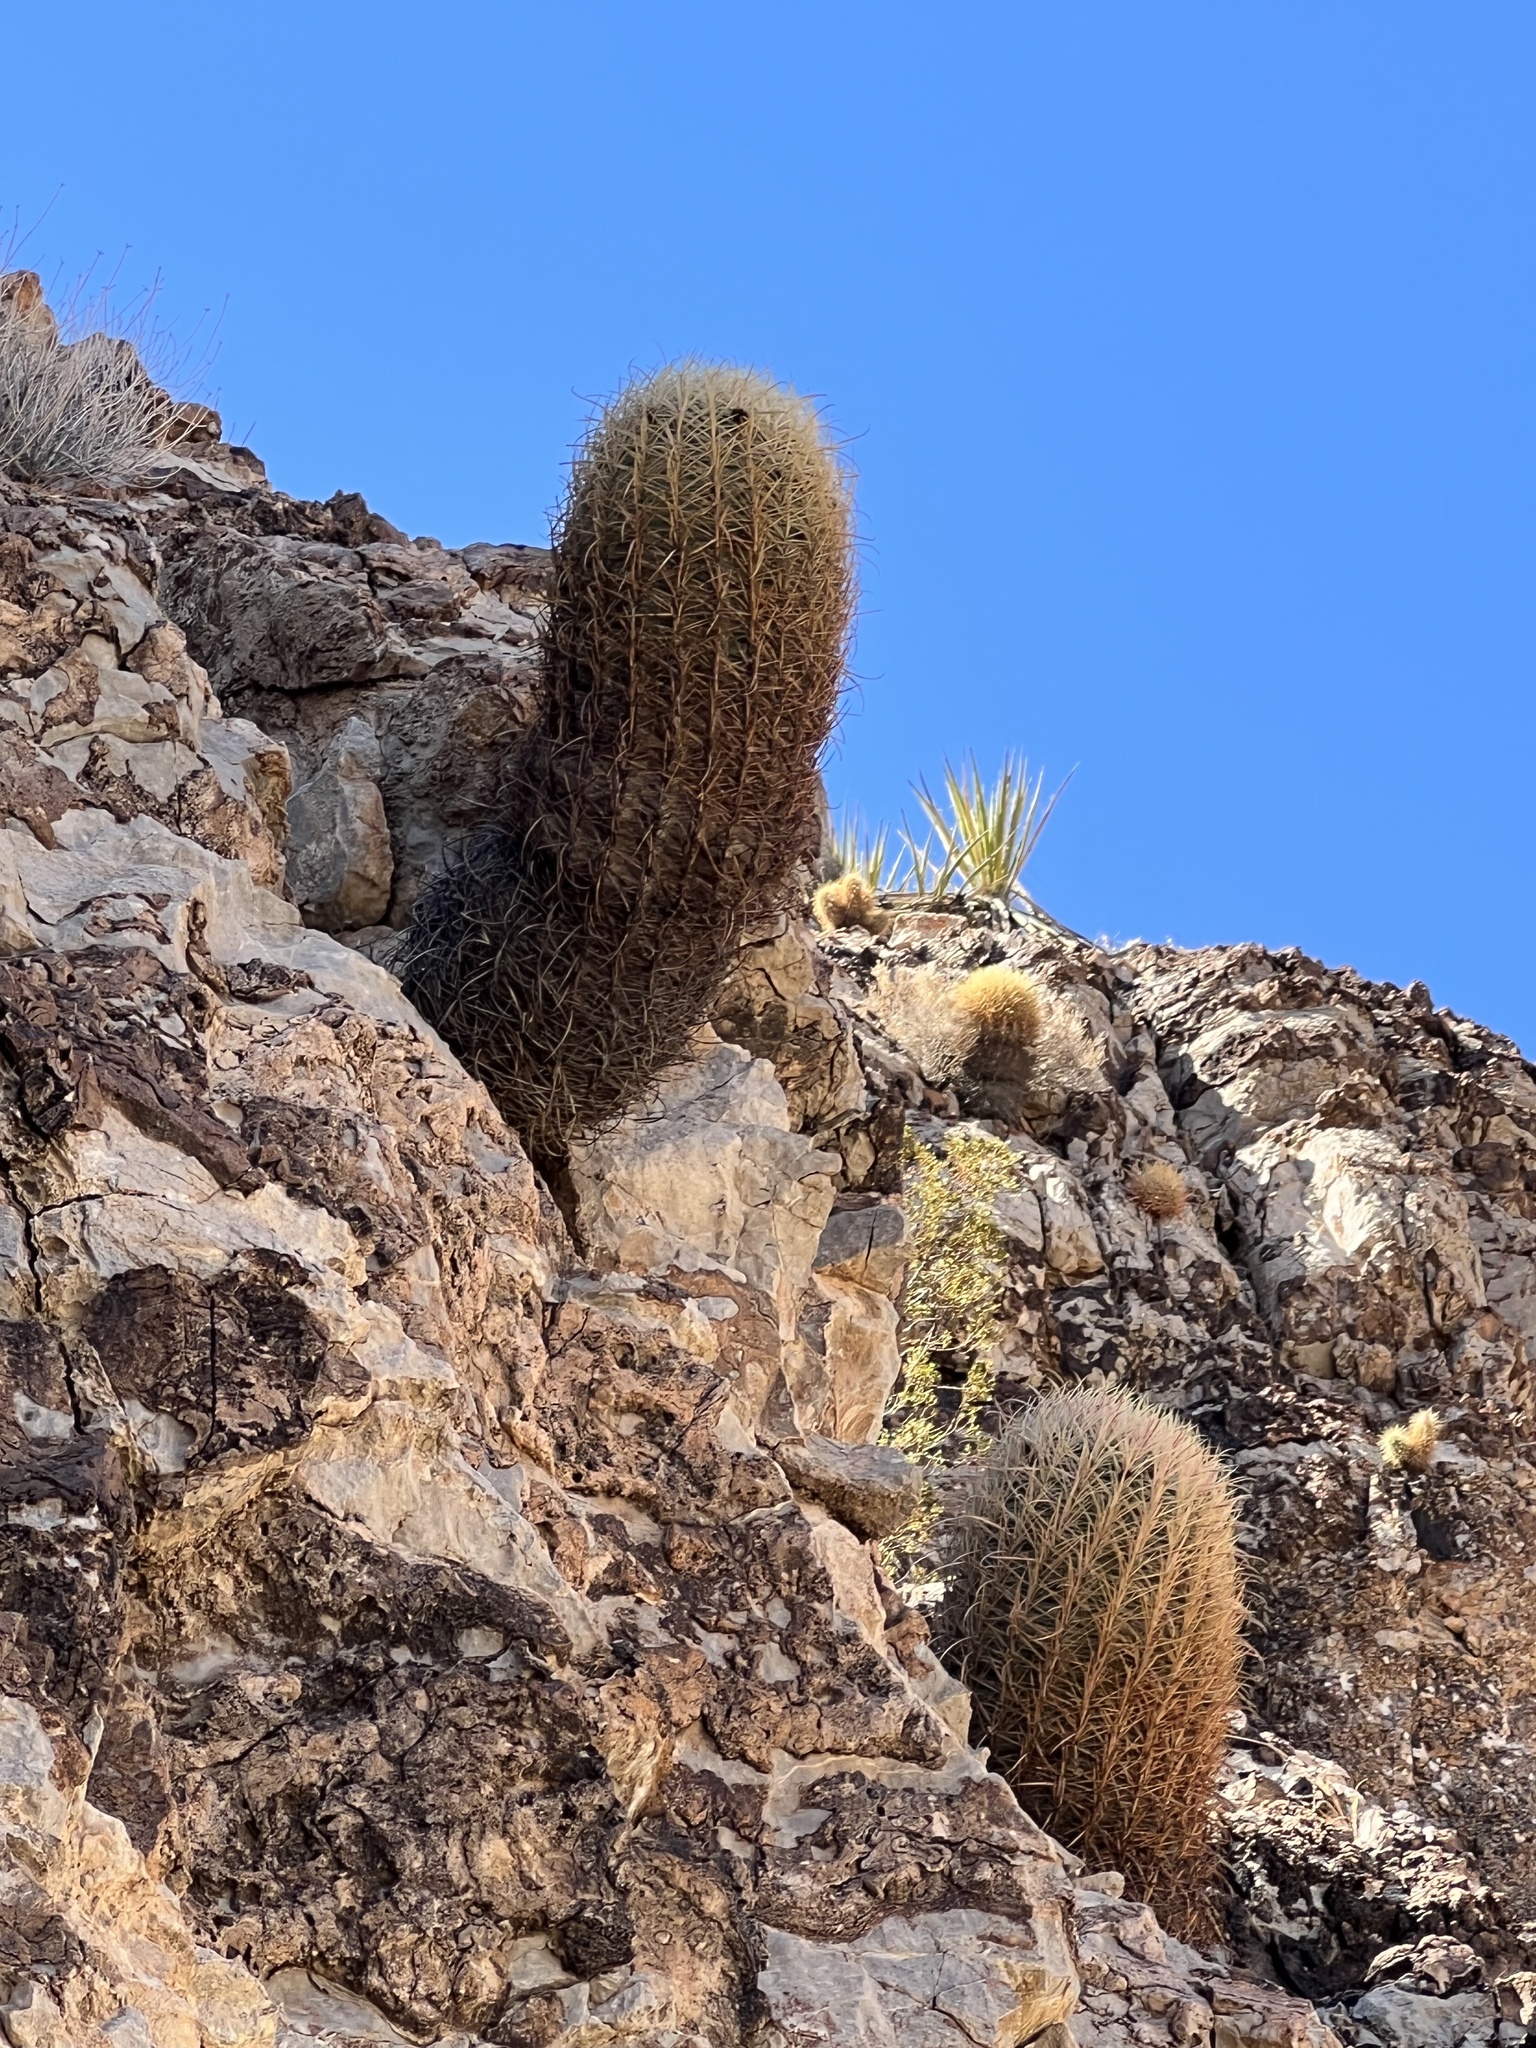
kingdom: Plantae
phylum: Tracheophyta
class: Magnoliopsida
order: Caryophyllales
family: Cactaceae
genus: Ferocactus
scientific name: Ferocactus cylindraceus
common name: California barrel cactus
